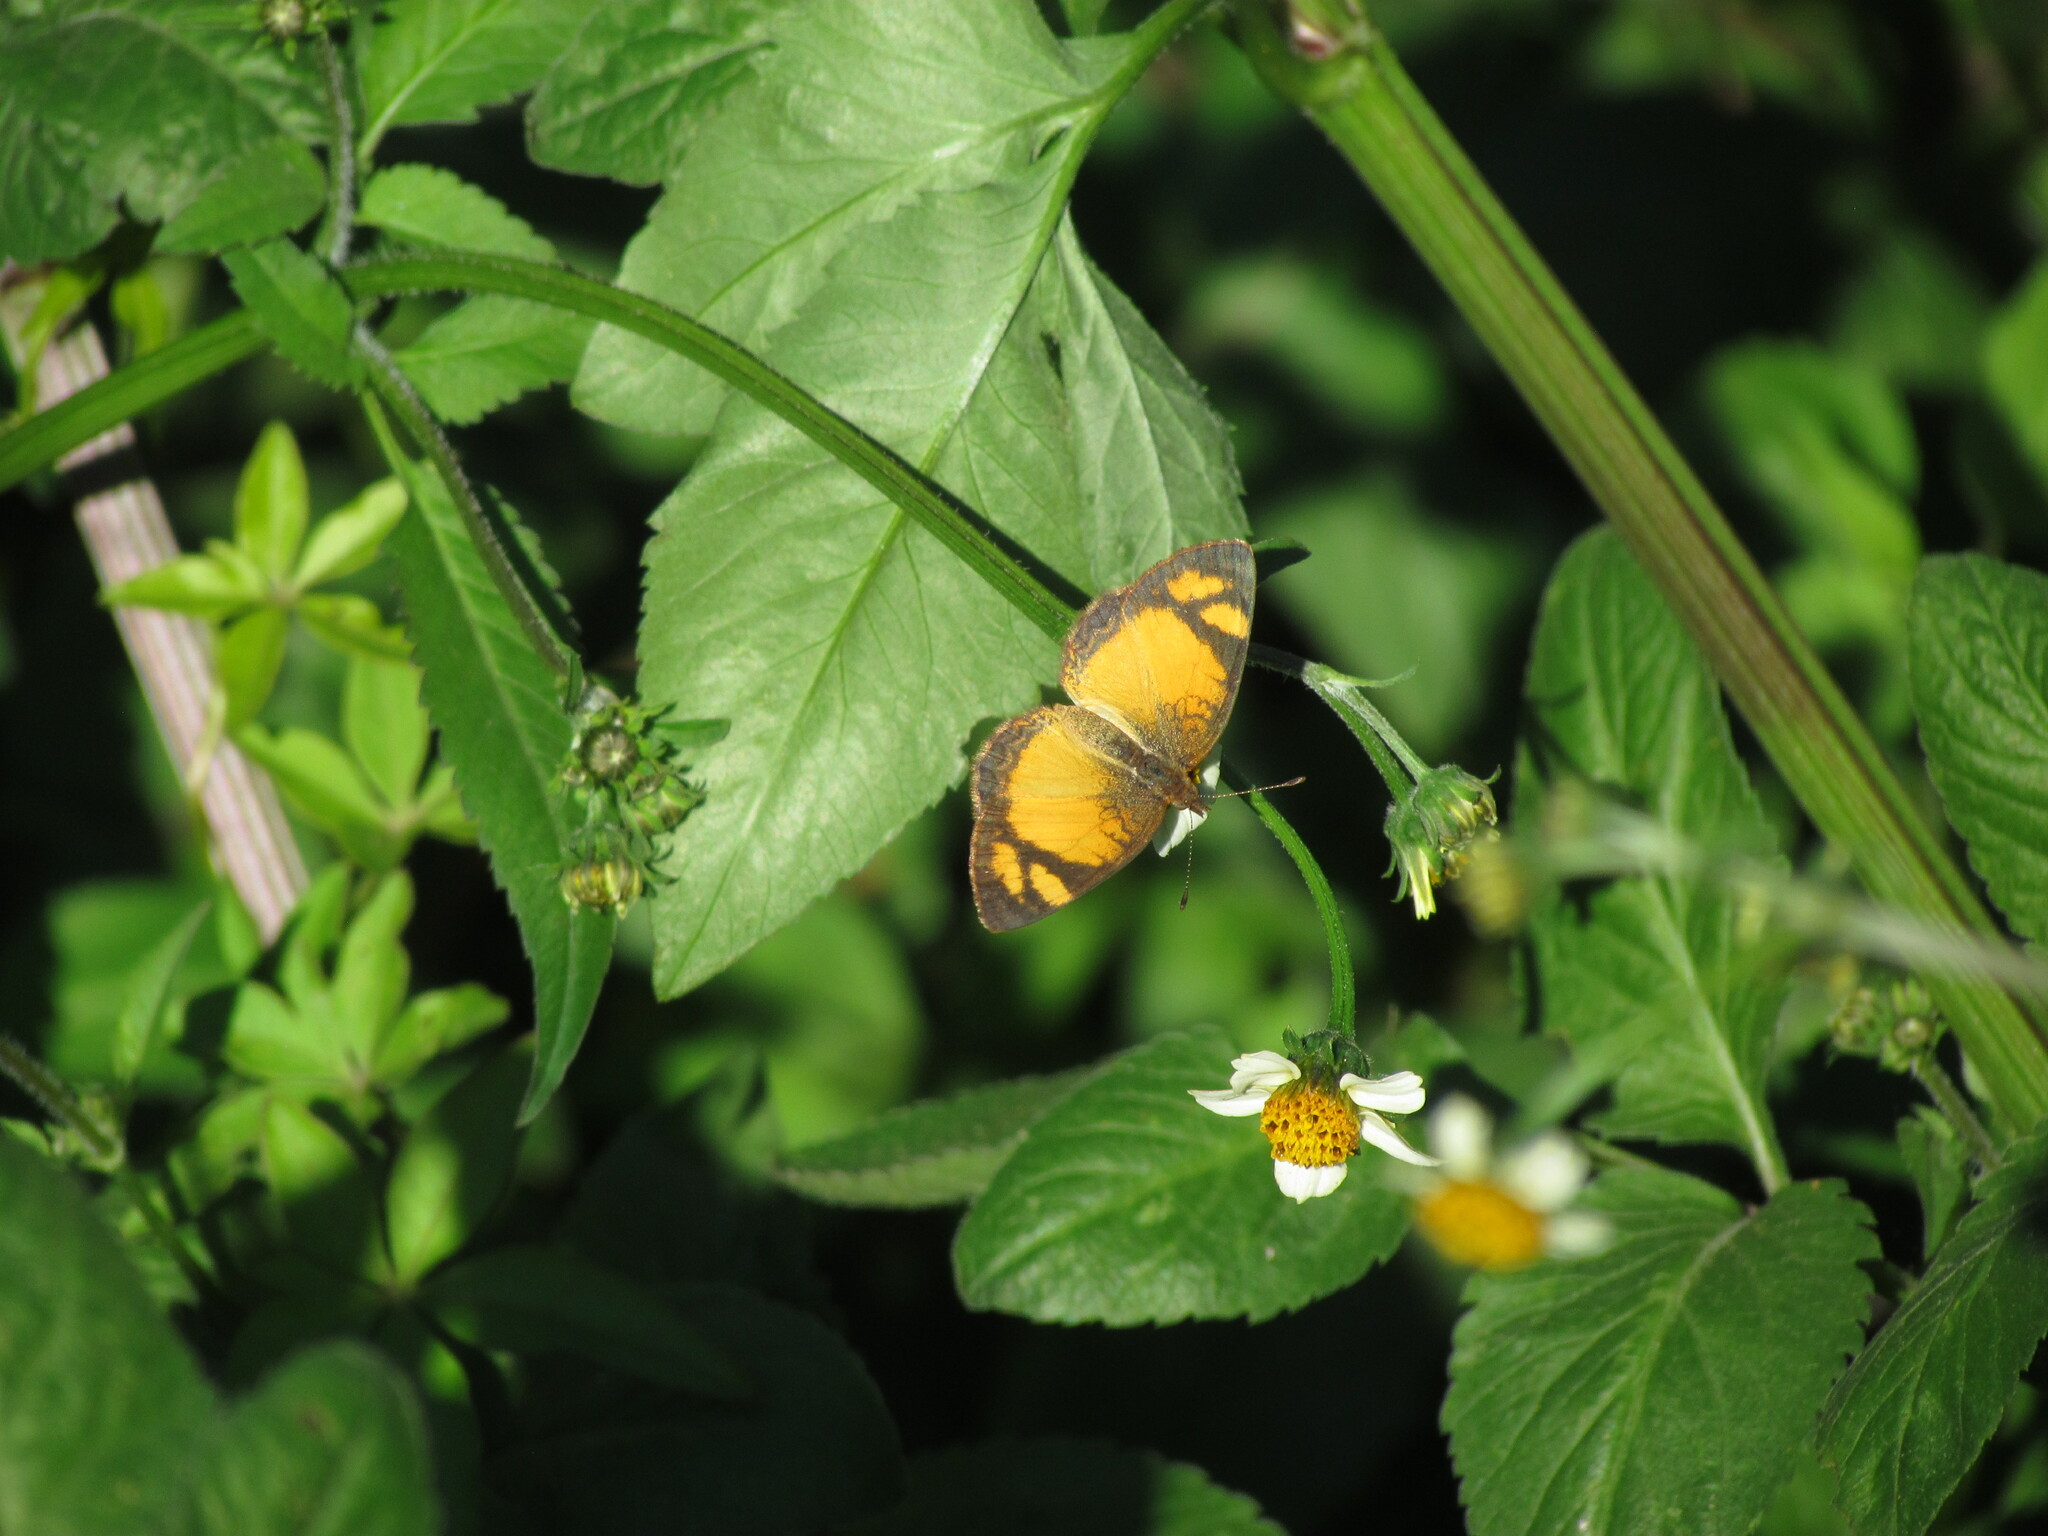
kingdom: Animalia
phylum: Arthropoda
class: Insecta
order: Lepidoptera
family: Nymphalidae
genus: Tegosa
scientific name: Tegosa claudina
